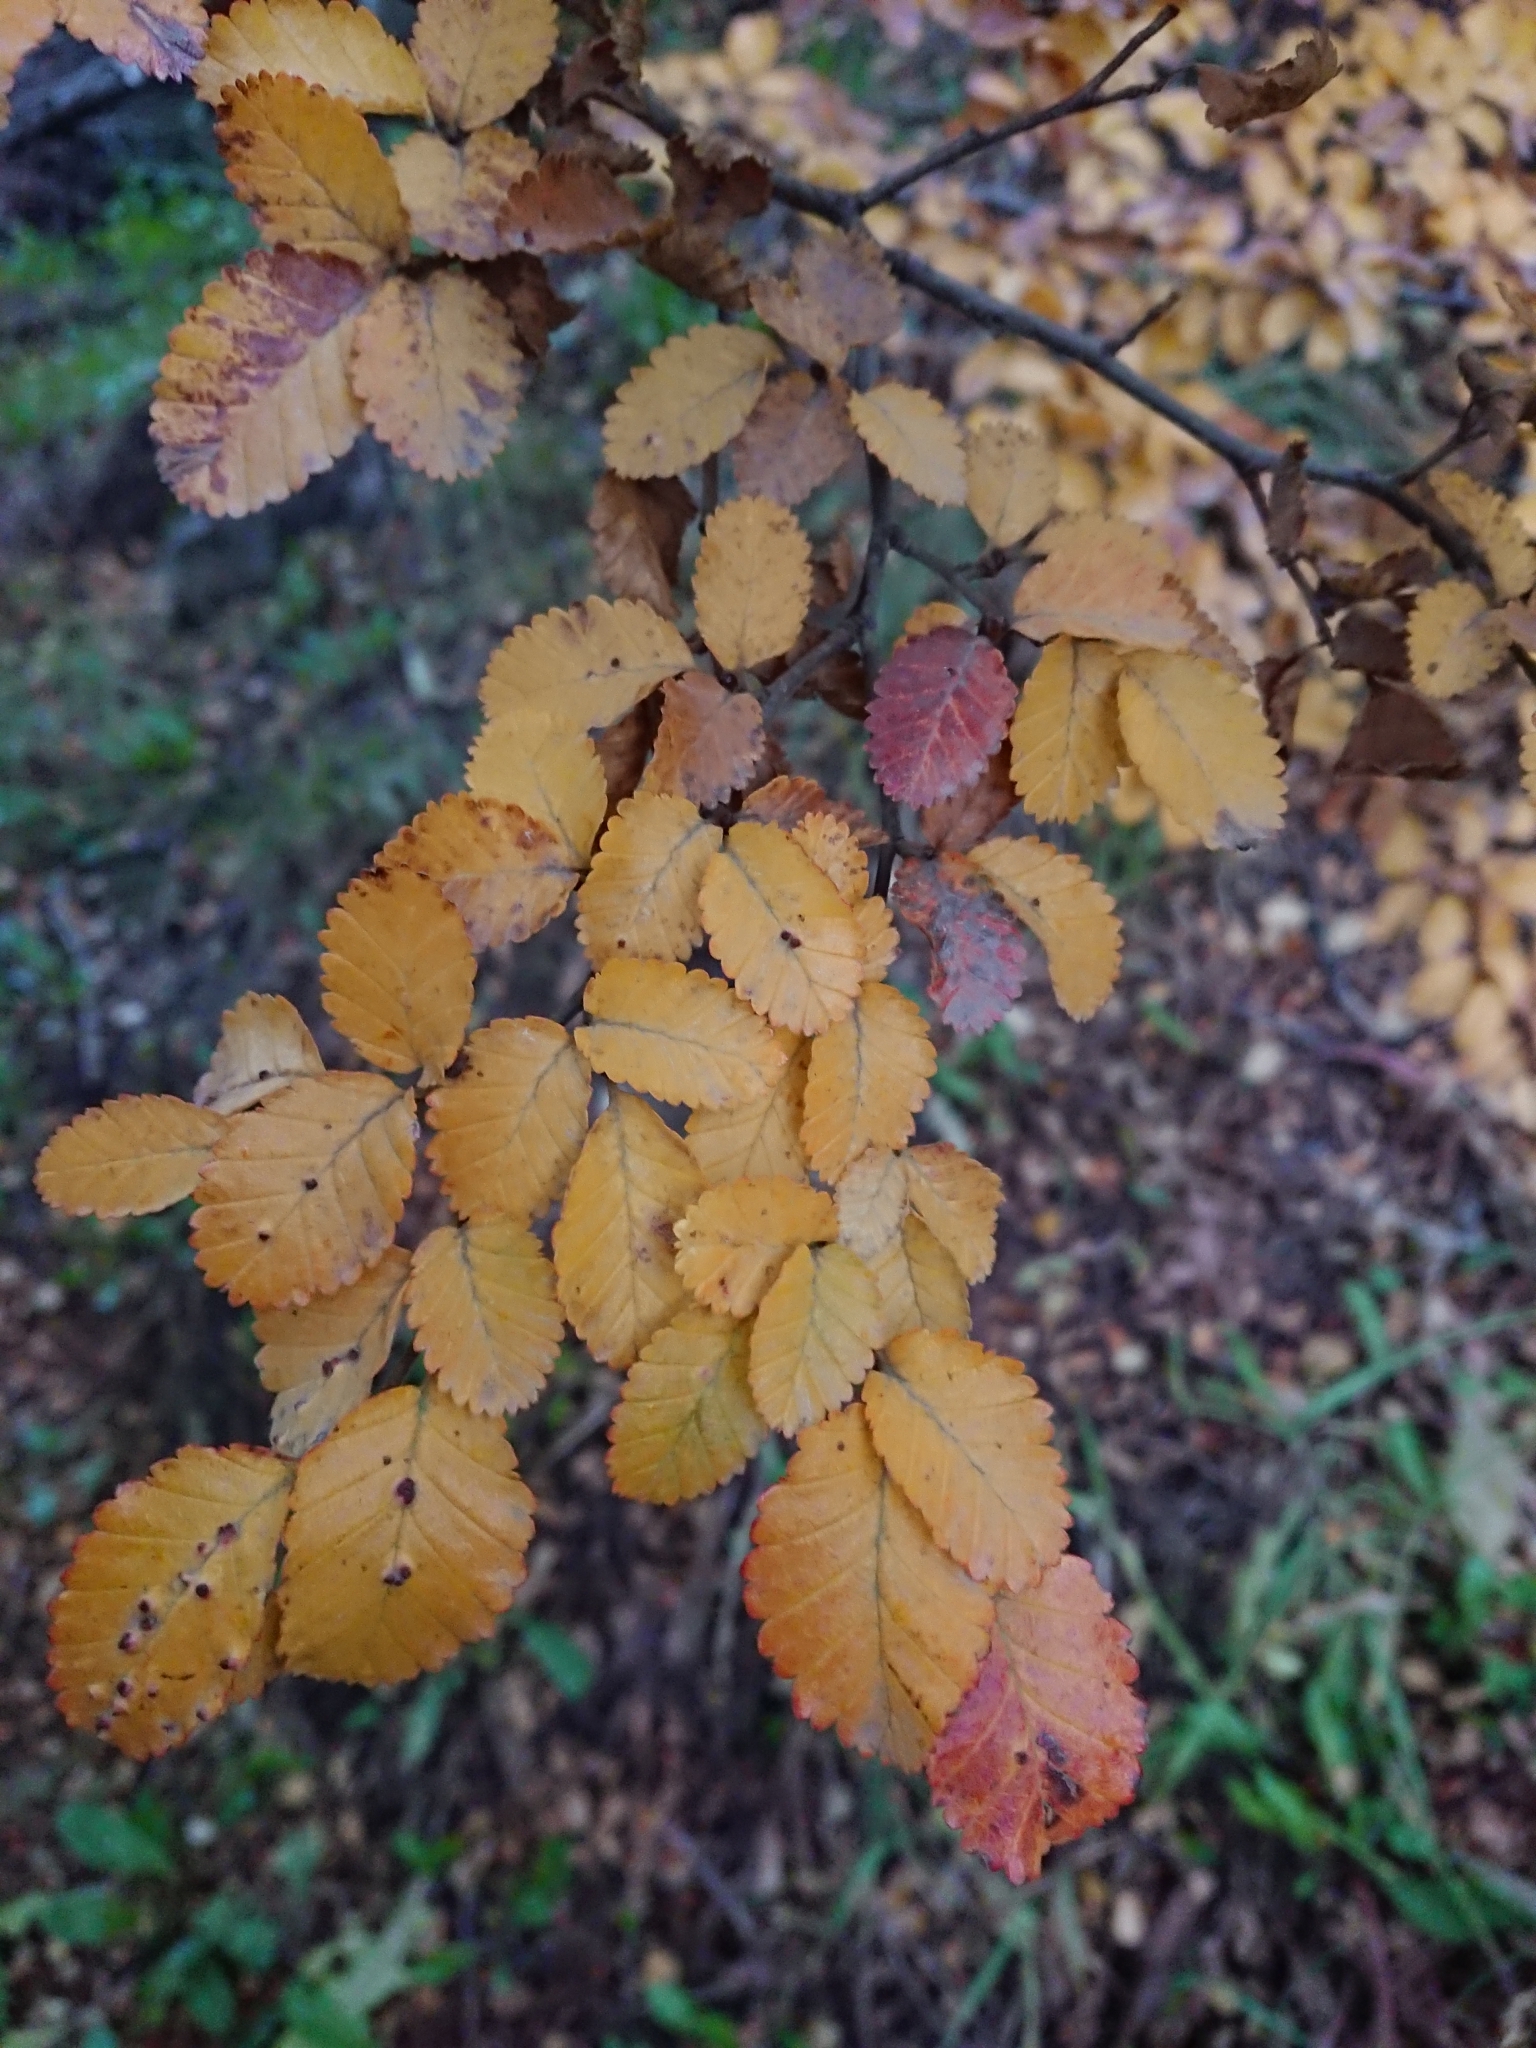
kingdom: Plantae
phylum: Tracheophyta
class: Magnoliopsida
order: Fagales
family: Nothofagaceae
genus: Nothofagus
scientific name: Nothofagus pumilio
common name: Lenga beech
